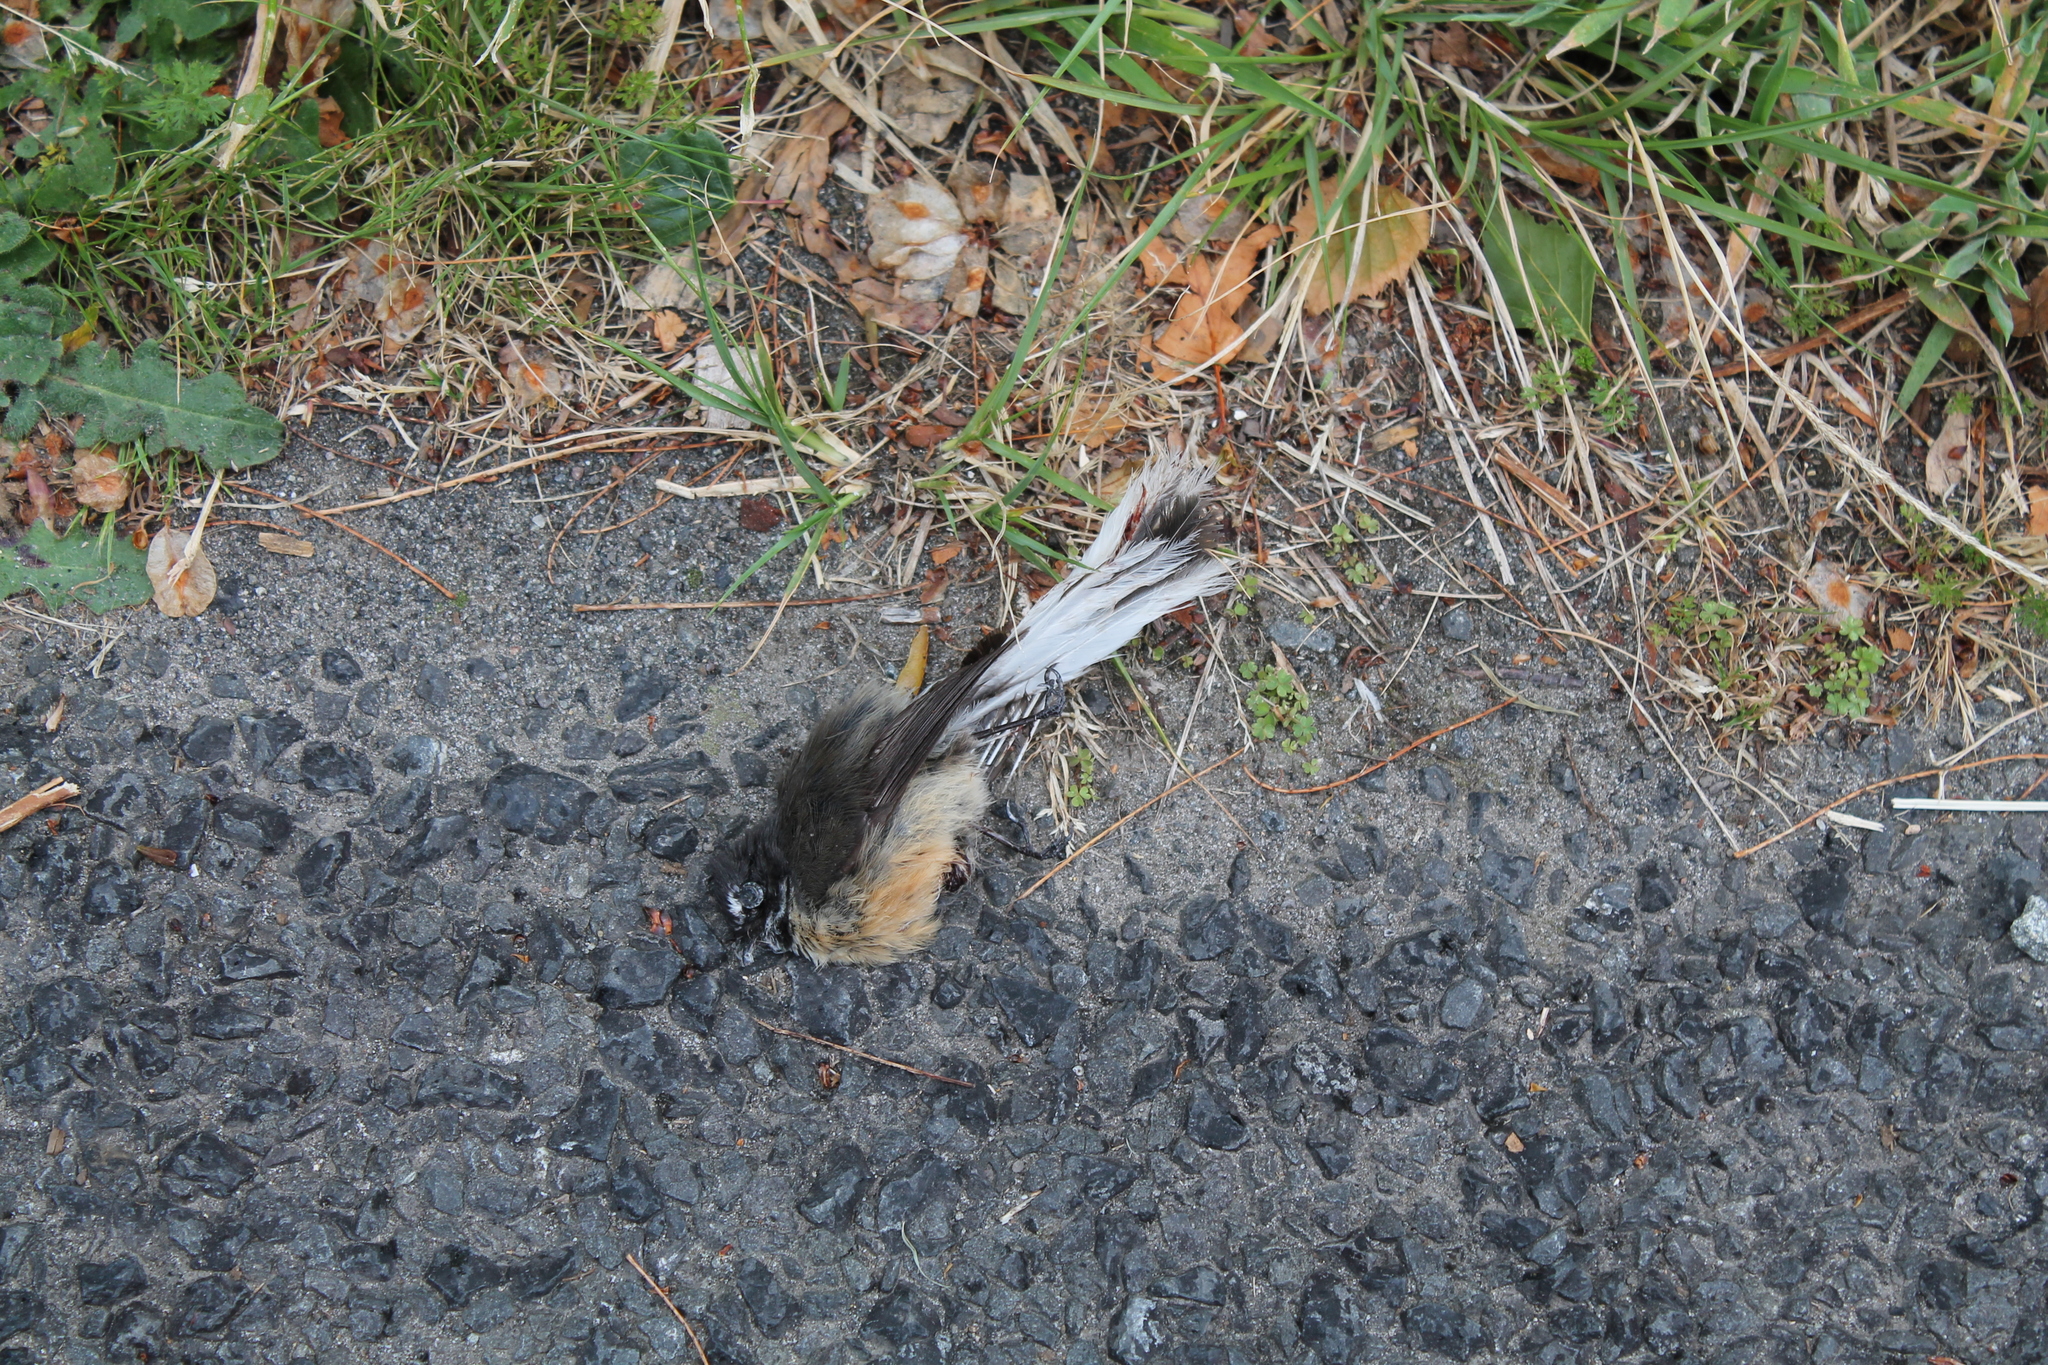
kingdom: Animalia
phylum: Chordata
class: Aves
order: Passeriformes
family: Rhipiduridae
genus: Rhipidura
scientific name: Rhipidura fuliginosa
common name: New zealand fantail
